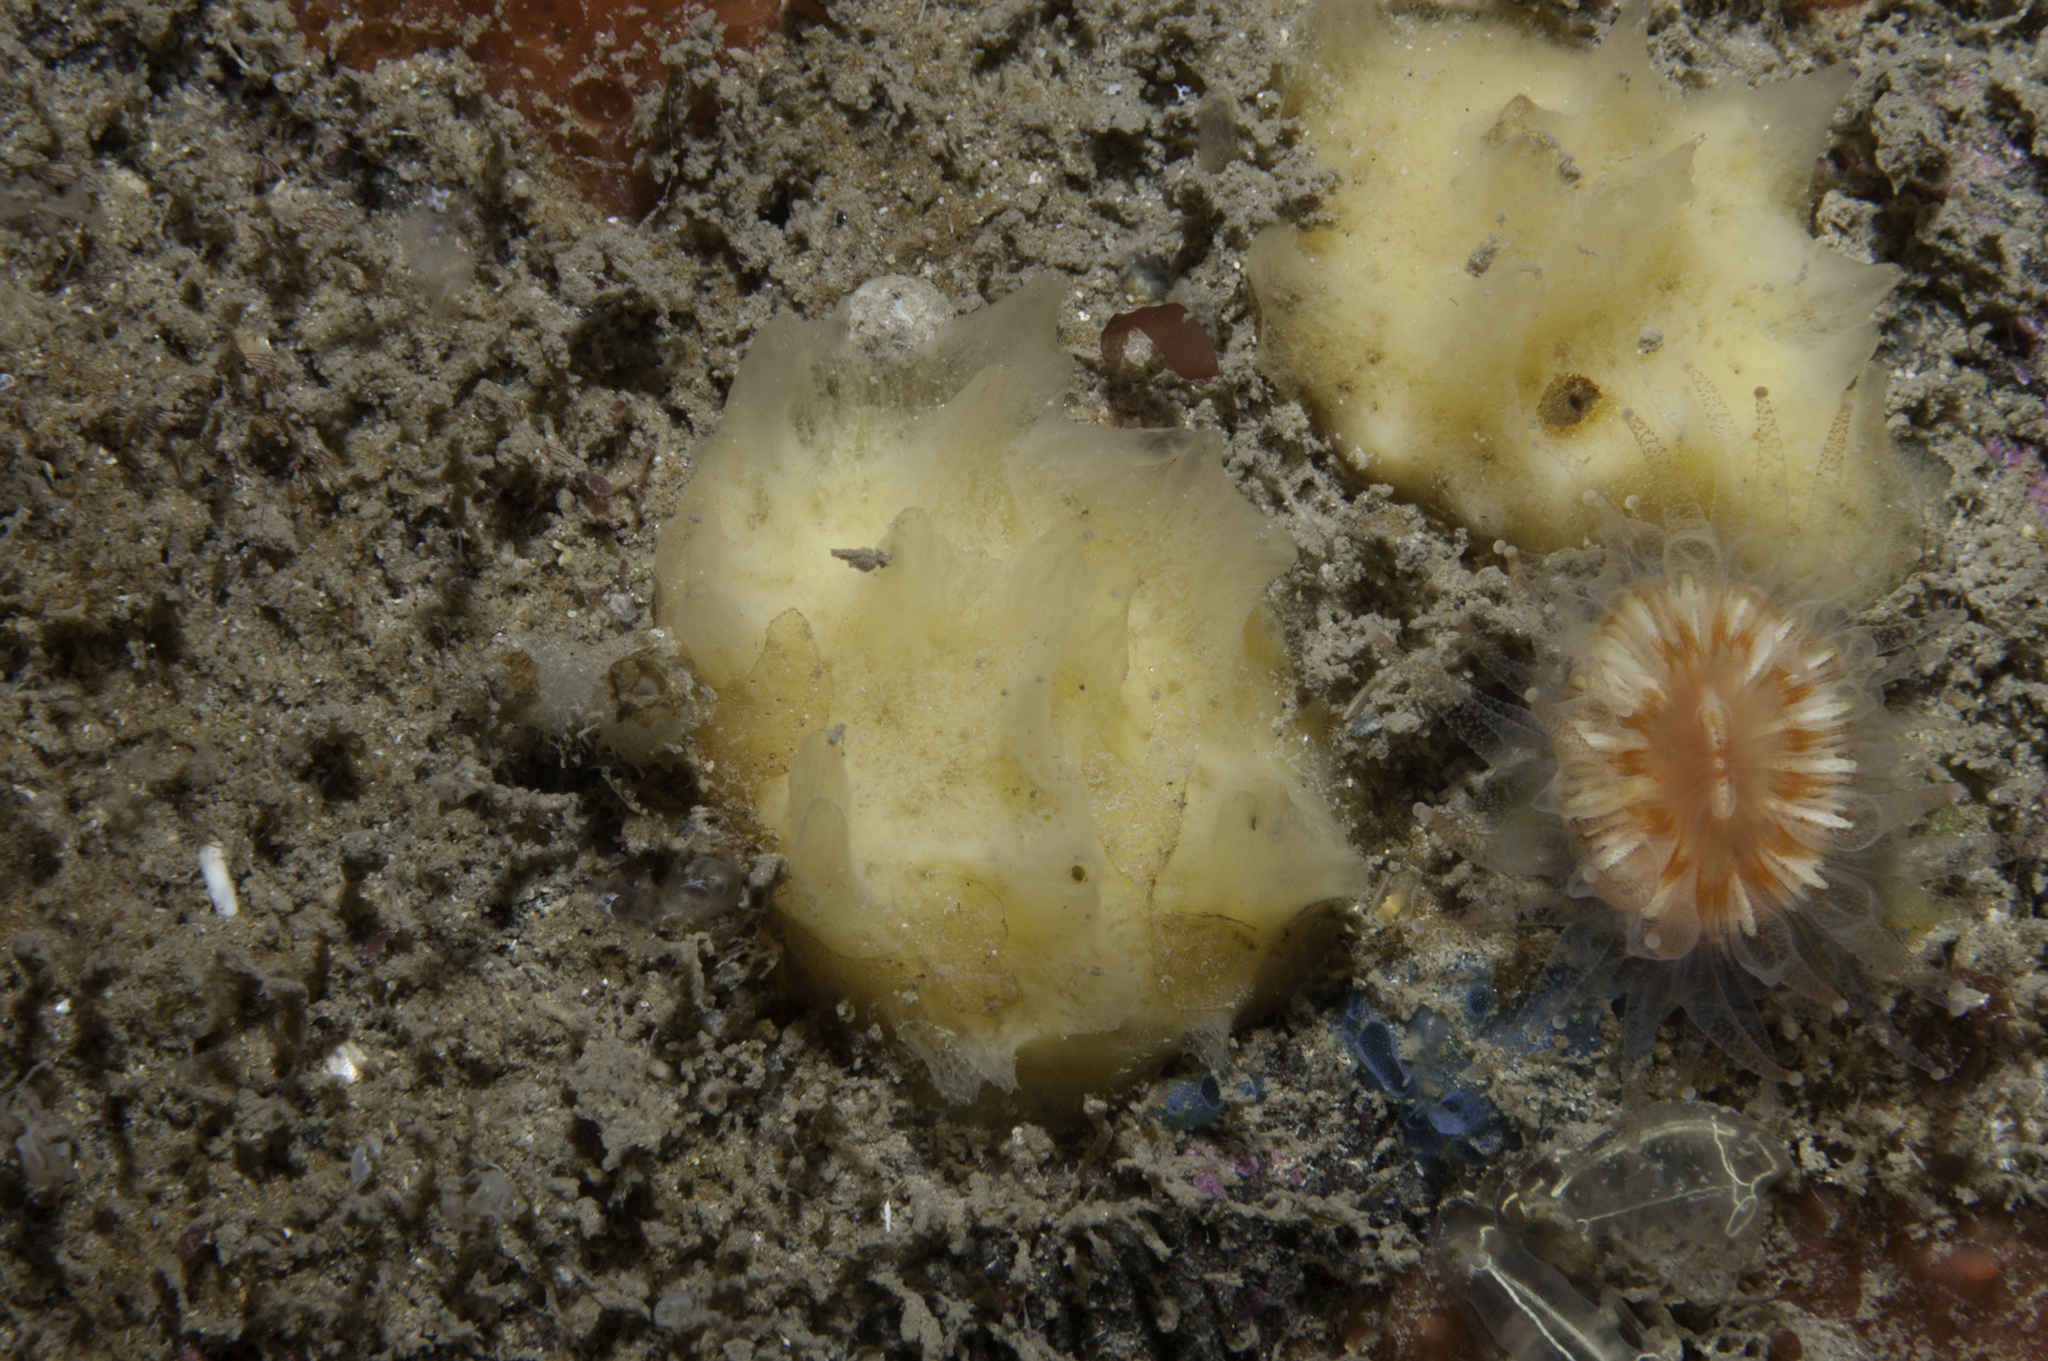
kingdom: Animalia
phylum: Porifera
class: Demospongiae
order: Suberitida
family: Halichondriidae
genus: Hymeniacidon
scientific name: Hymeniacidon simplicima
